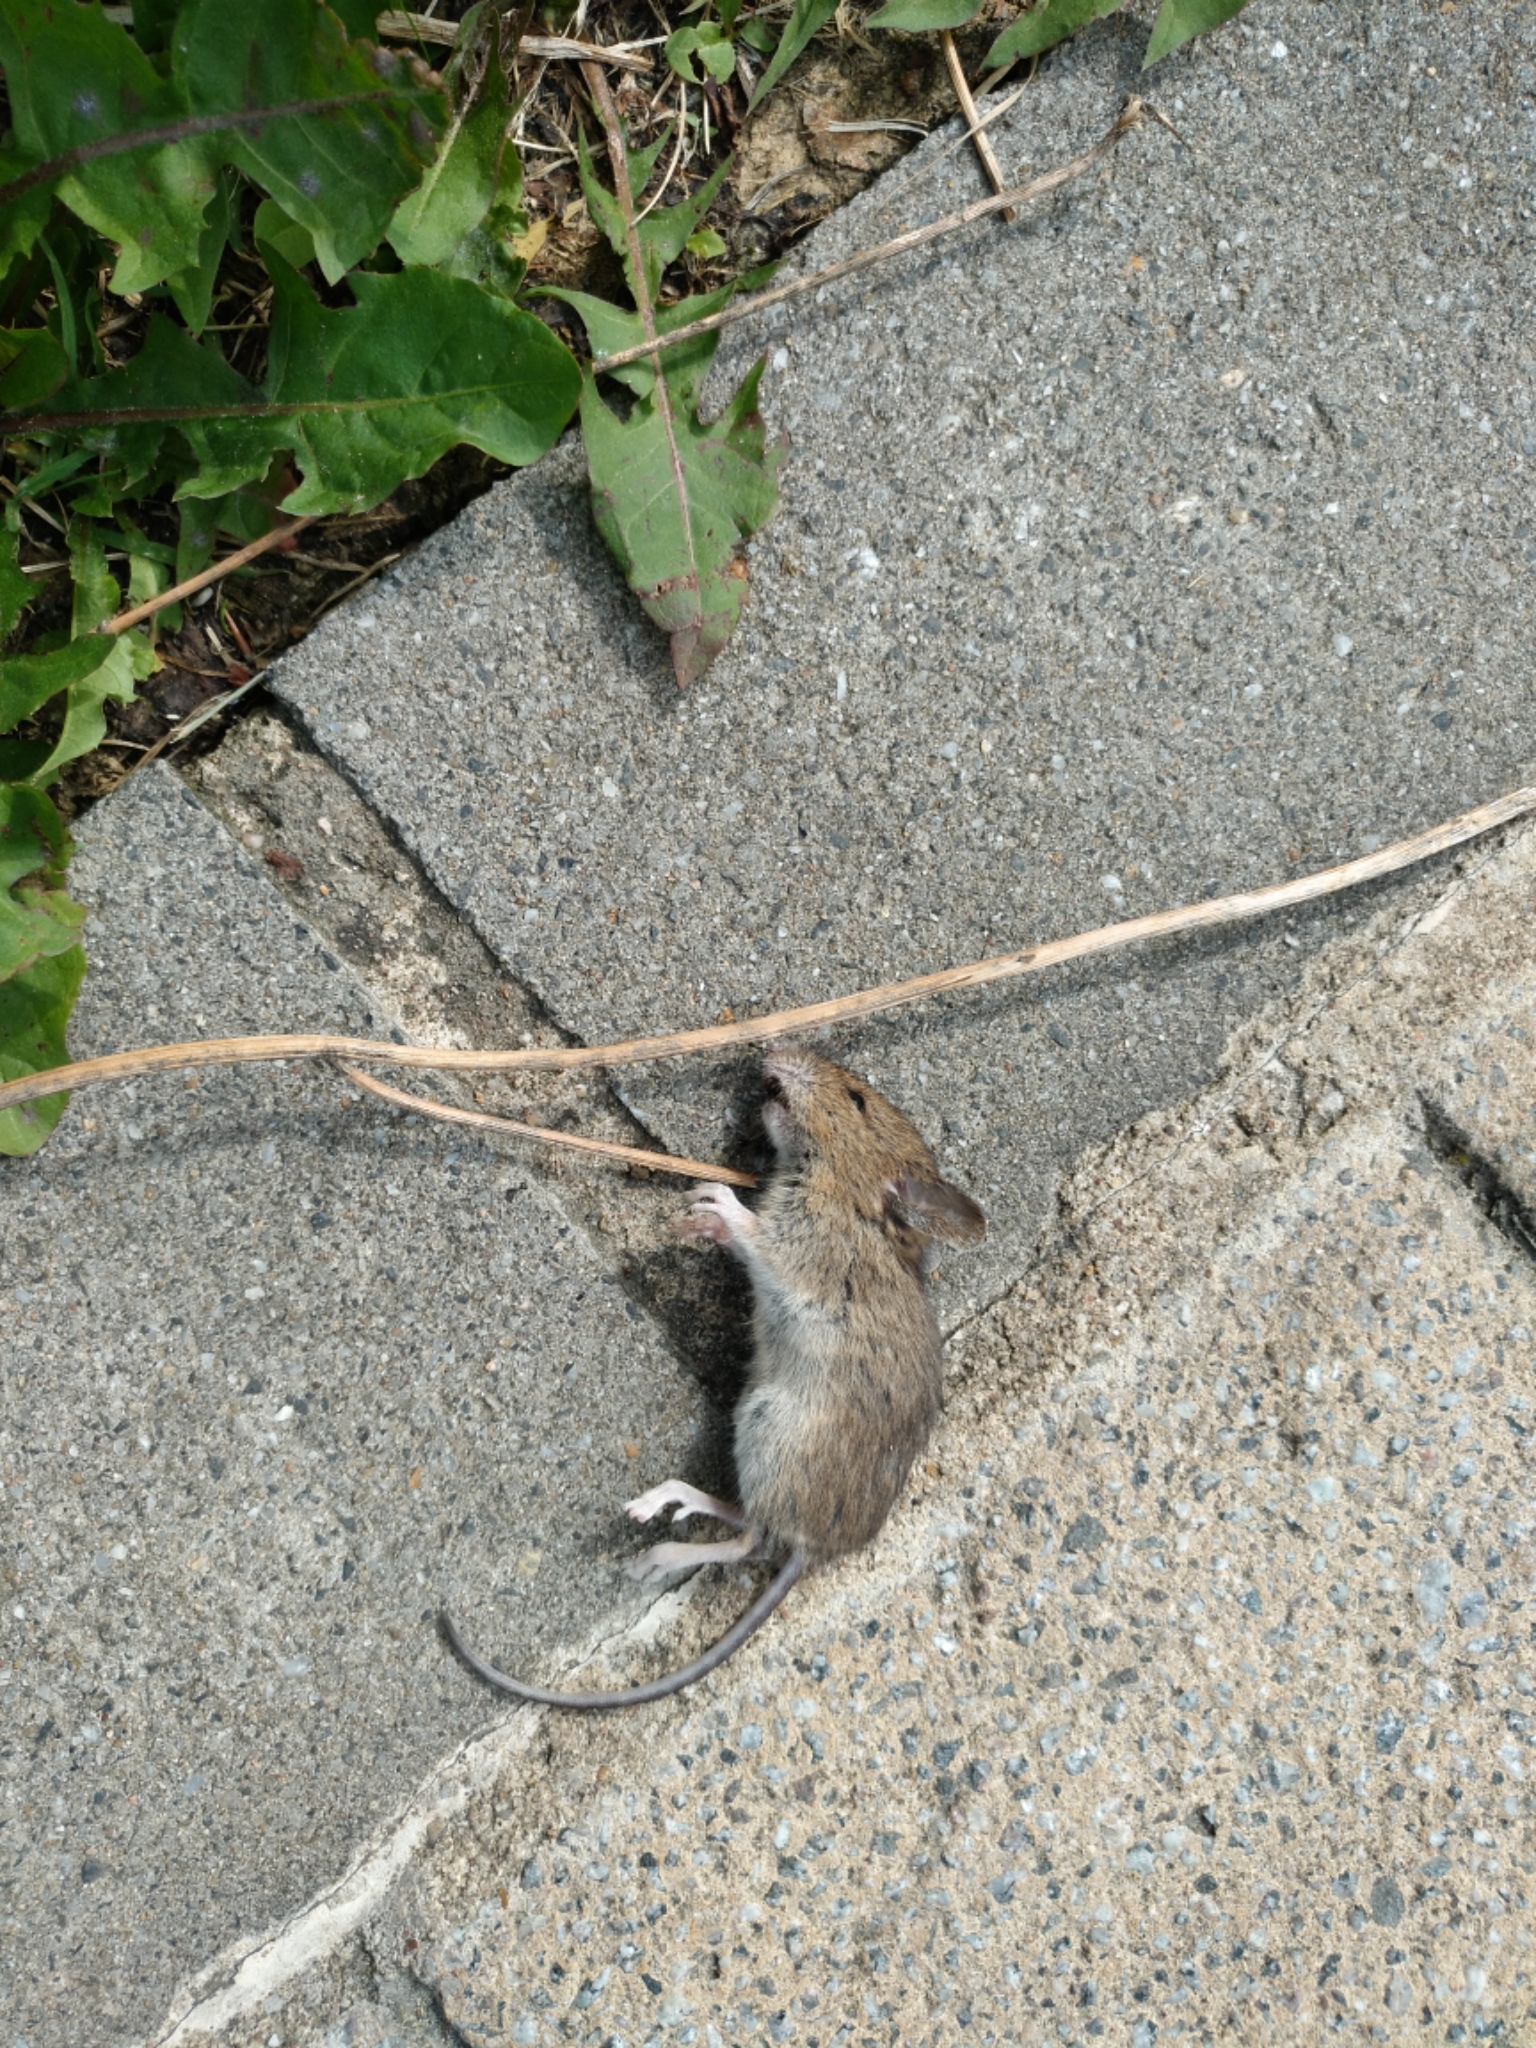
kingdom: Animalia
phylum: Chordata
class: Mammalia
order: Rodentia
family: Muridae
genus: Apodemus
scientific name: Apodemus sylvaticus
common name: Wood mouse
